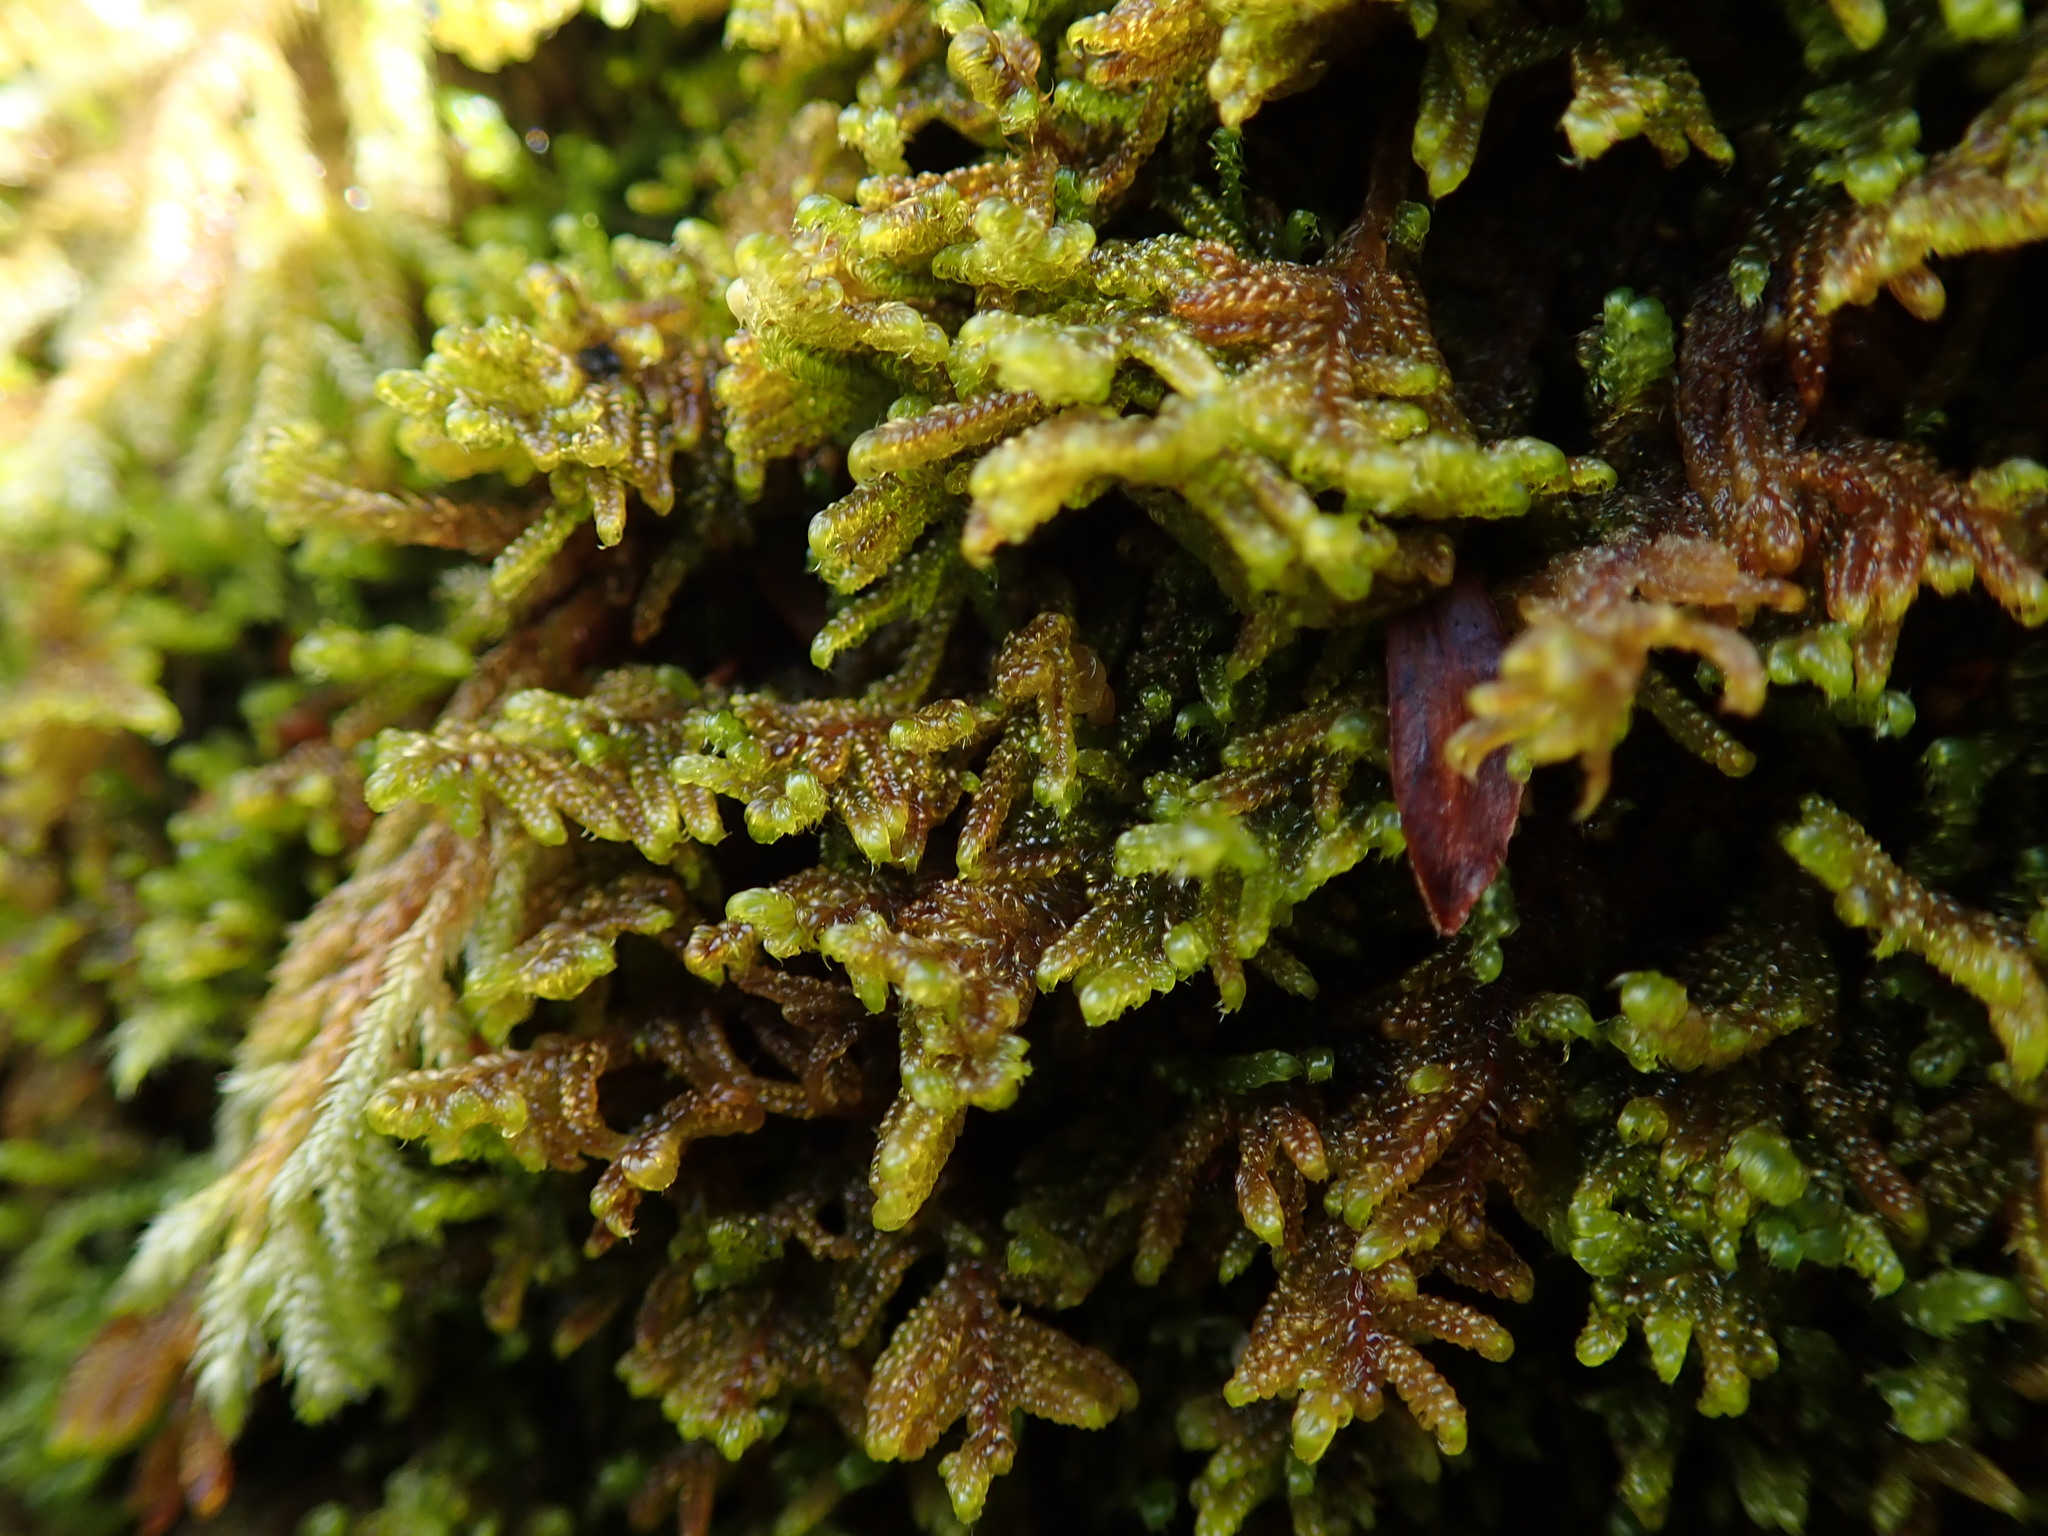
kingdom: Plantae
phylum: Bryophyta
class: Bryopsida
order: Hypnales
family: Stereodontaceae
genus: Stereodon
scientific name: Stereodon subimponens
